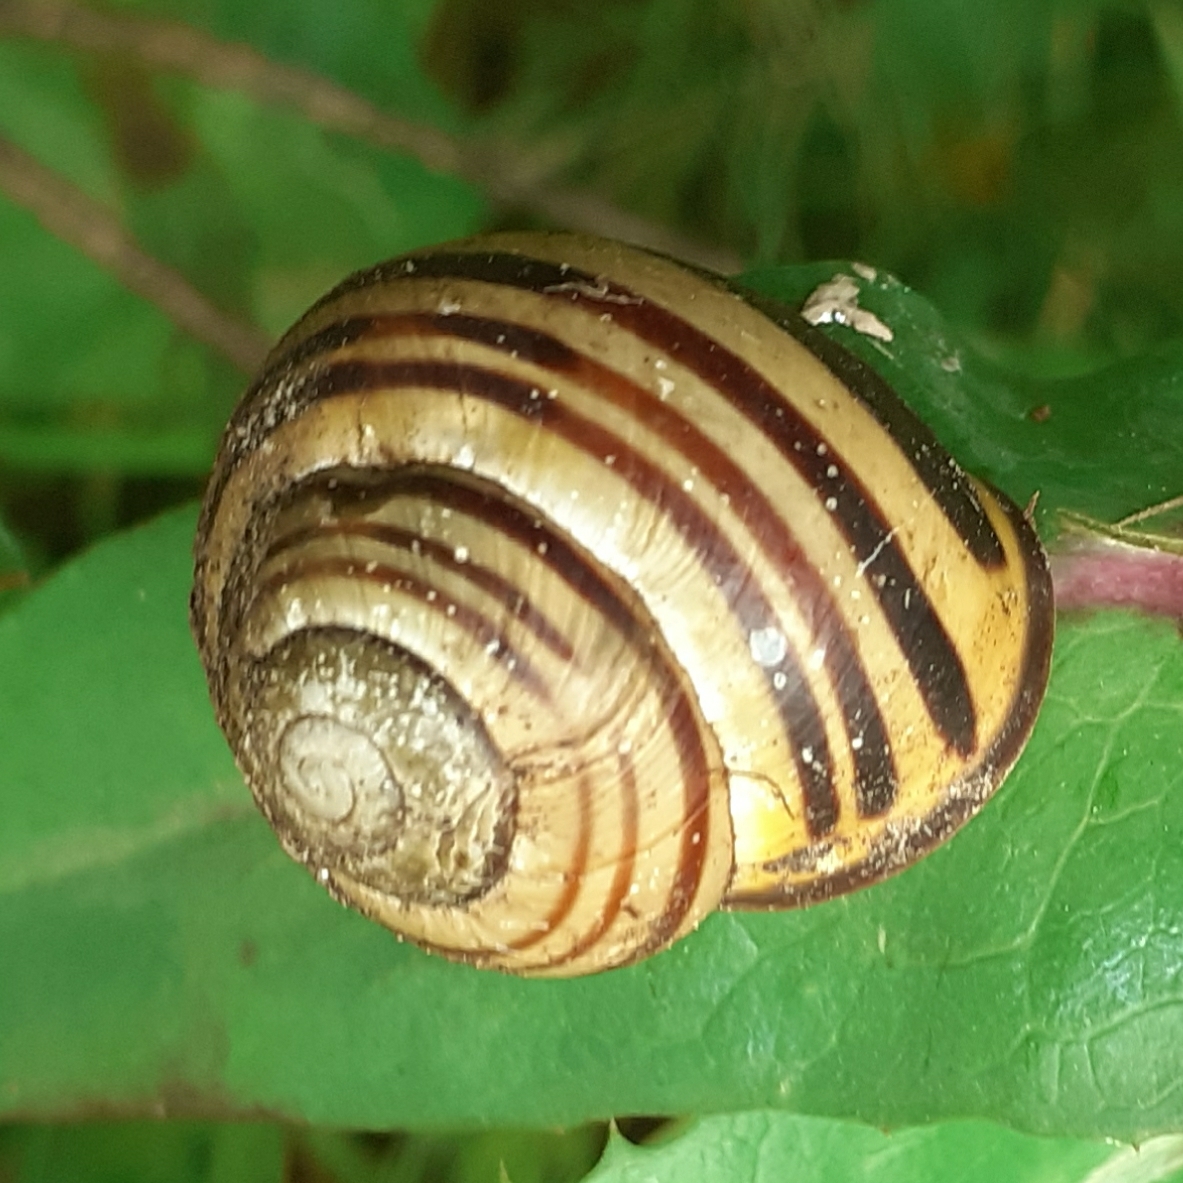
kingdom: Animalia
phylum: Mollusca
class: Gastropoda
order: Stylommatophora
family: Helicidae
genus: Cepaea
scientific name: Cepaea nemoralis
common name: Grovesnail
